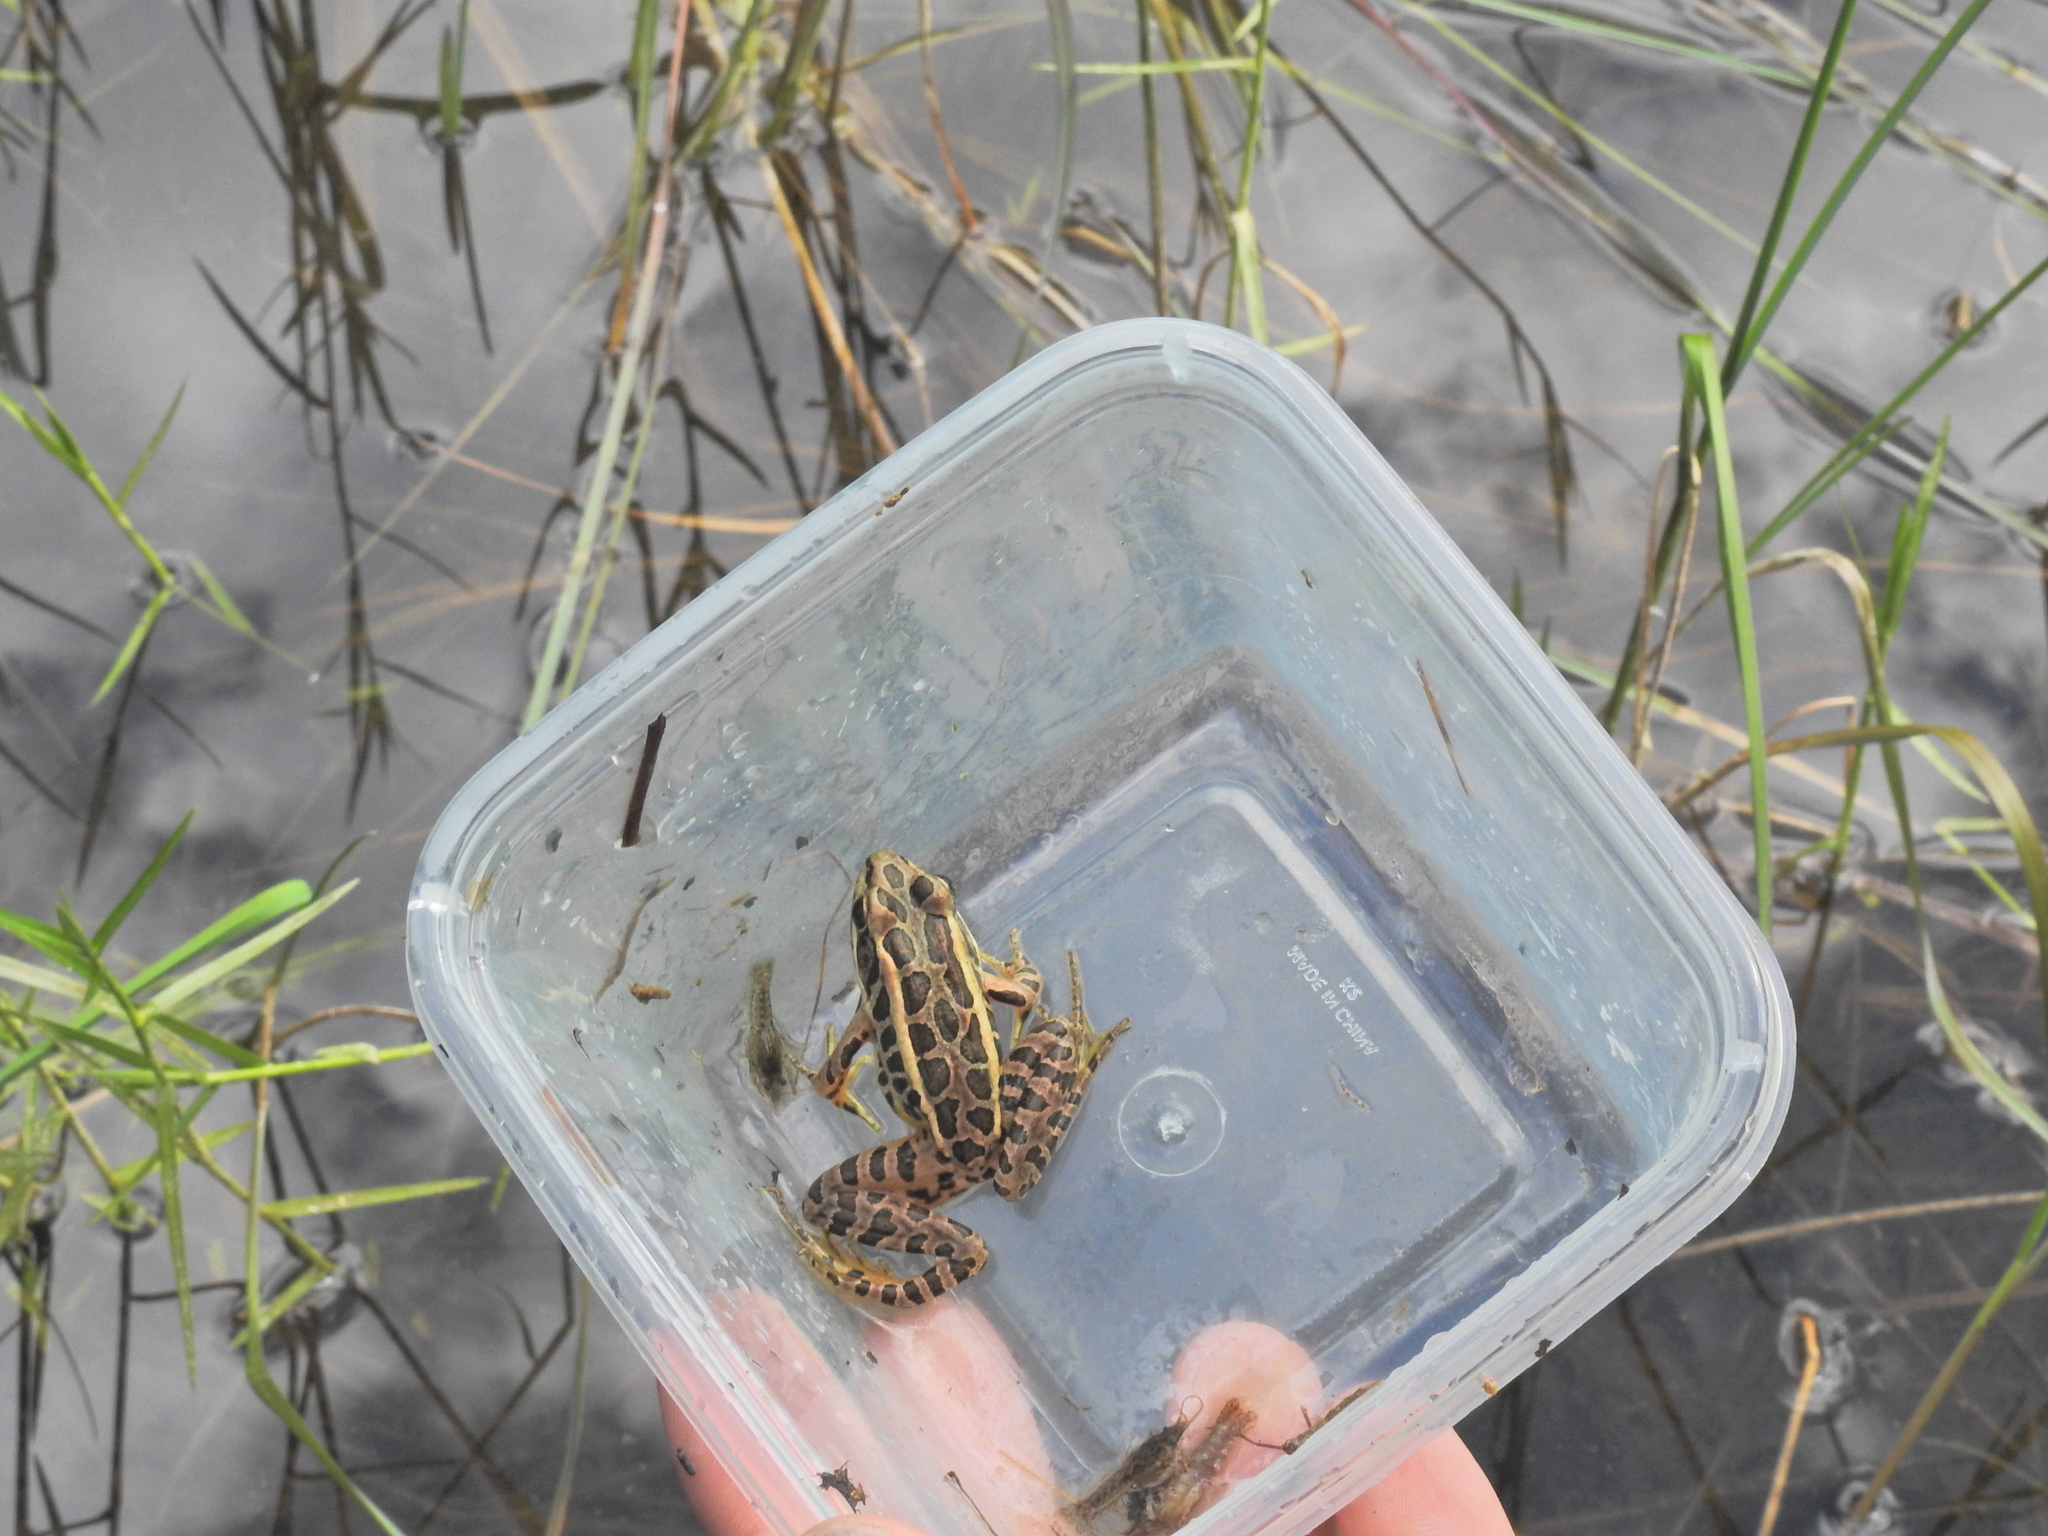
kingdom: Animalia
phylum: Chordata
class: Amphibia
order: Anura
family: Ranidae
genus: Lithobates
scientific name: Lithobates pipiens
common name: Northern leopard frog
